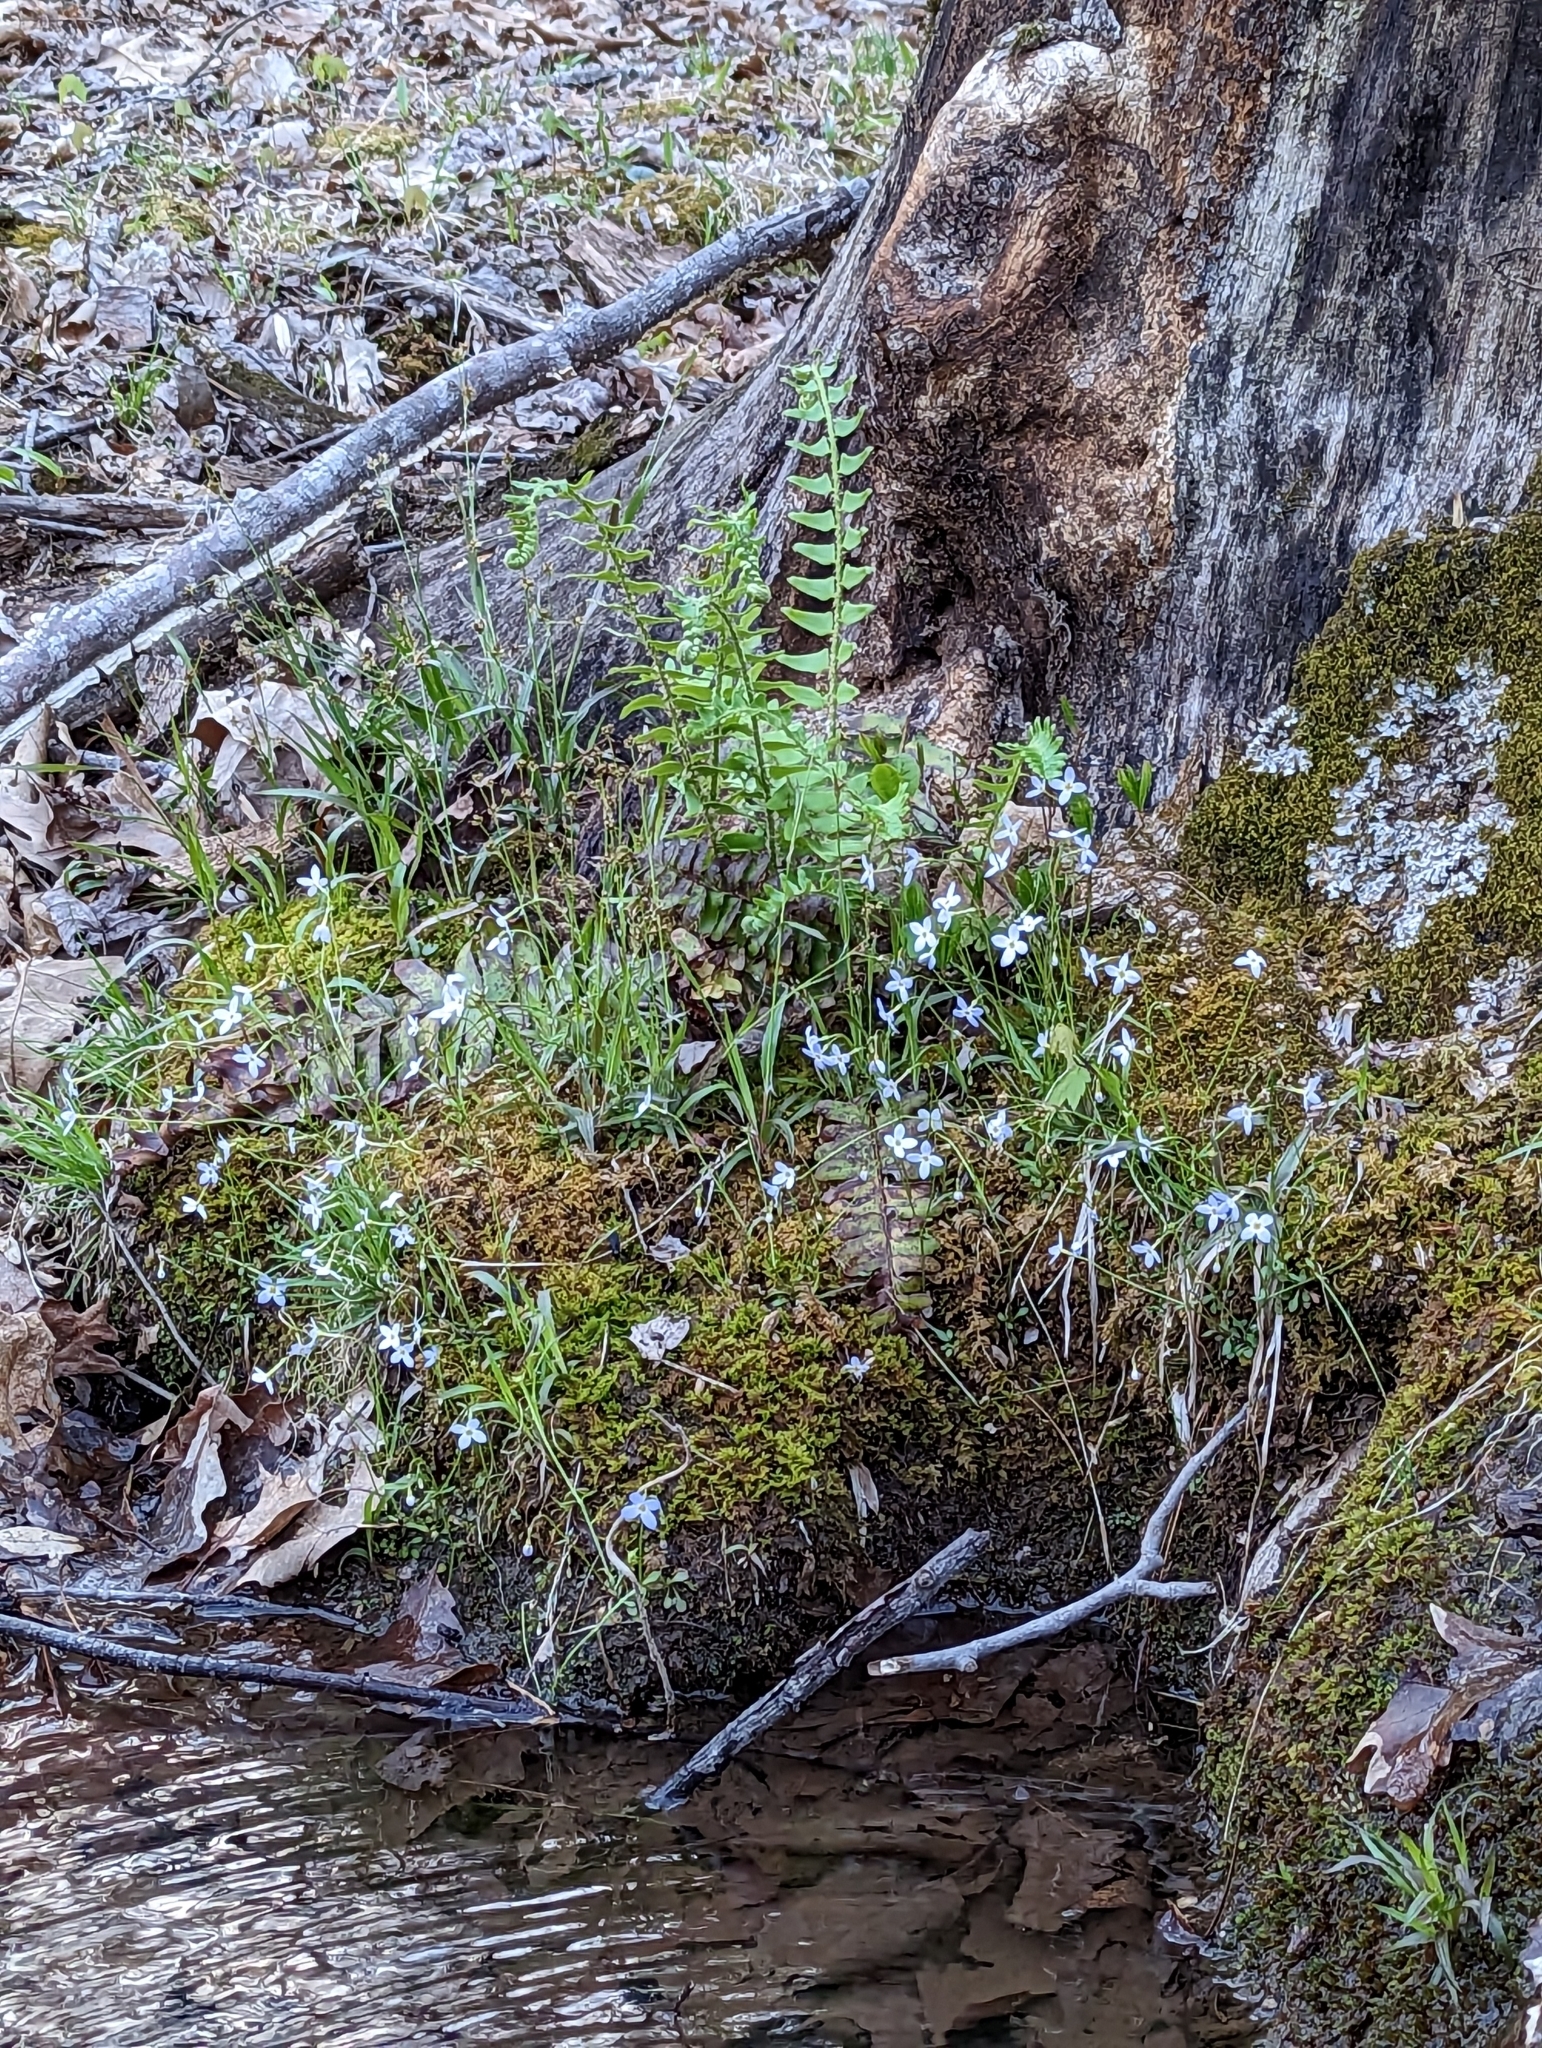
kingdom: Plantae
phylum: Tracheophyta
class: Magnoliopsida
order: Gentianales
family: Rubiaceae
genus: Houstonia
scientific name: Houstonia caerulea
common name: Bluets
